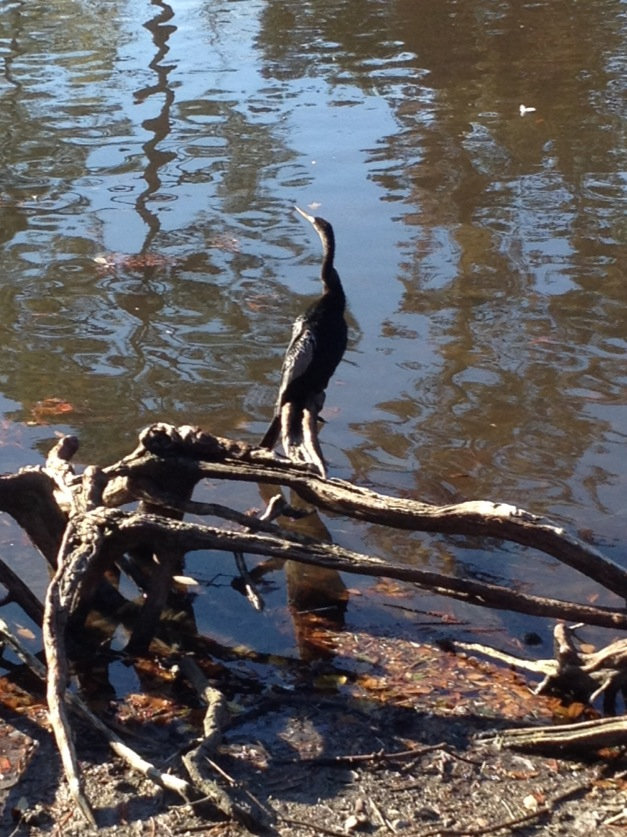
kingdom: Animalia
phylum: Chordata
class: Aves
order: Suliformes
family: Anhingidae
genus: Anhinga
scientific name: Anhinga anhinga
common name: Anhinga
